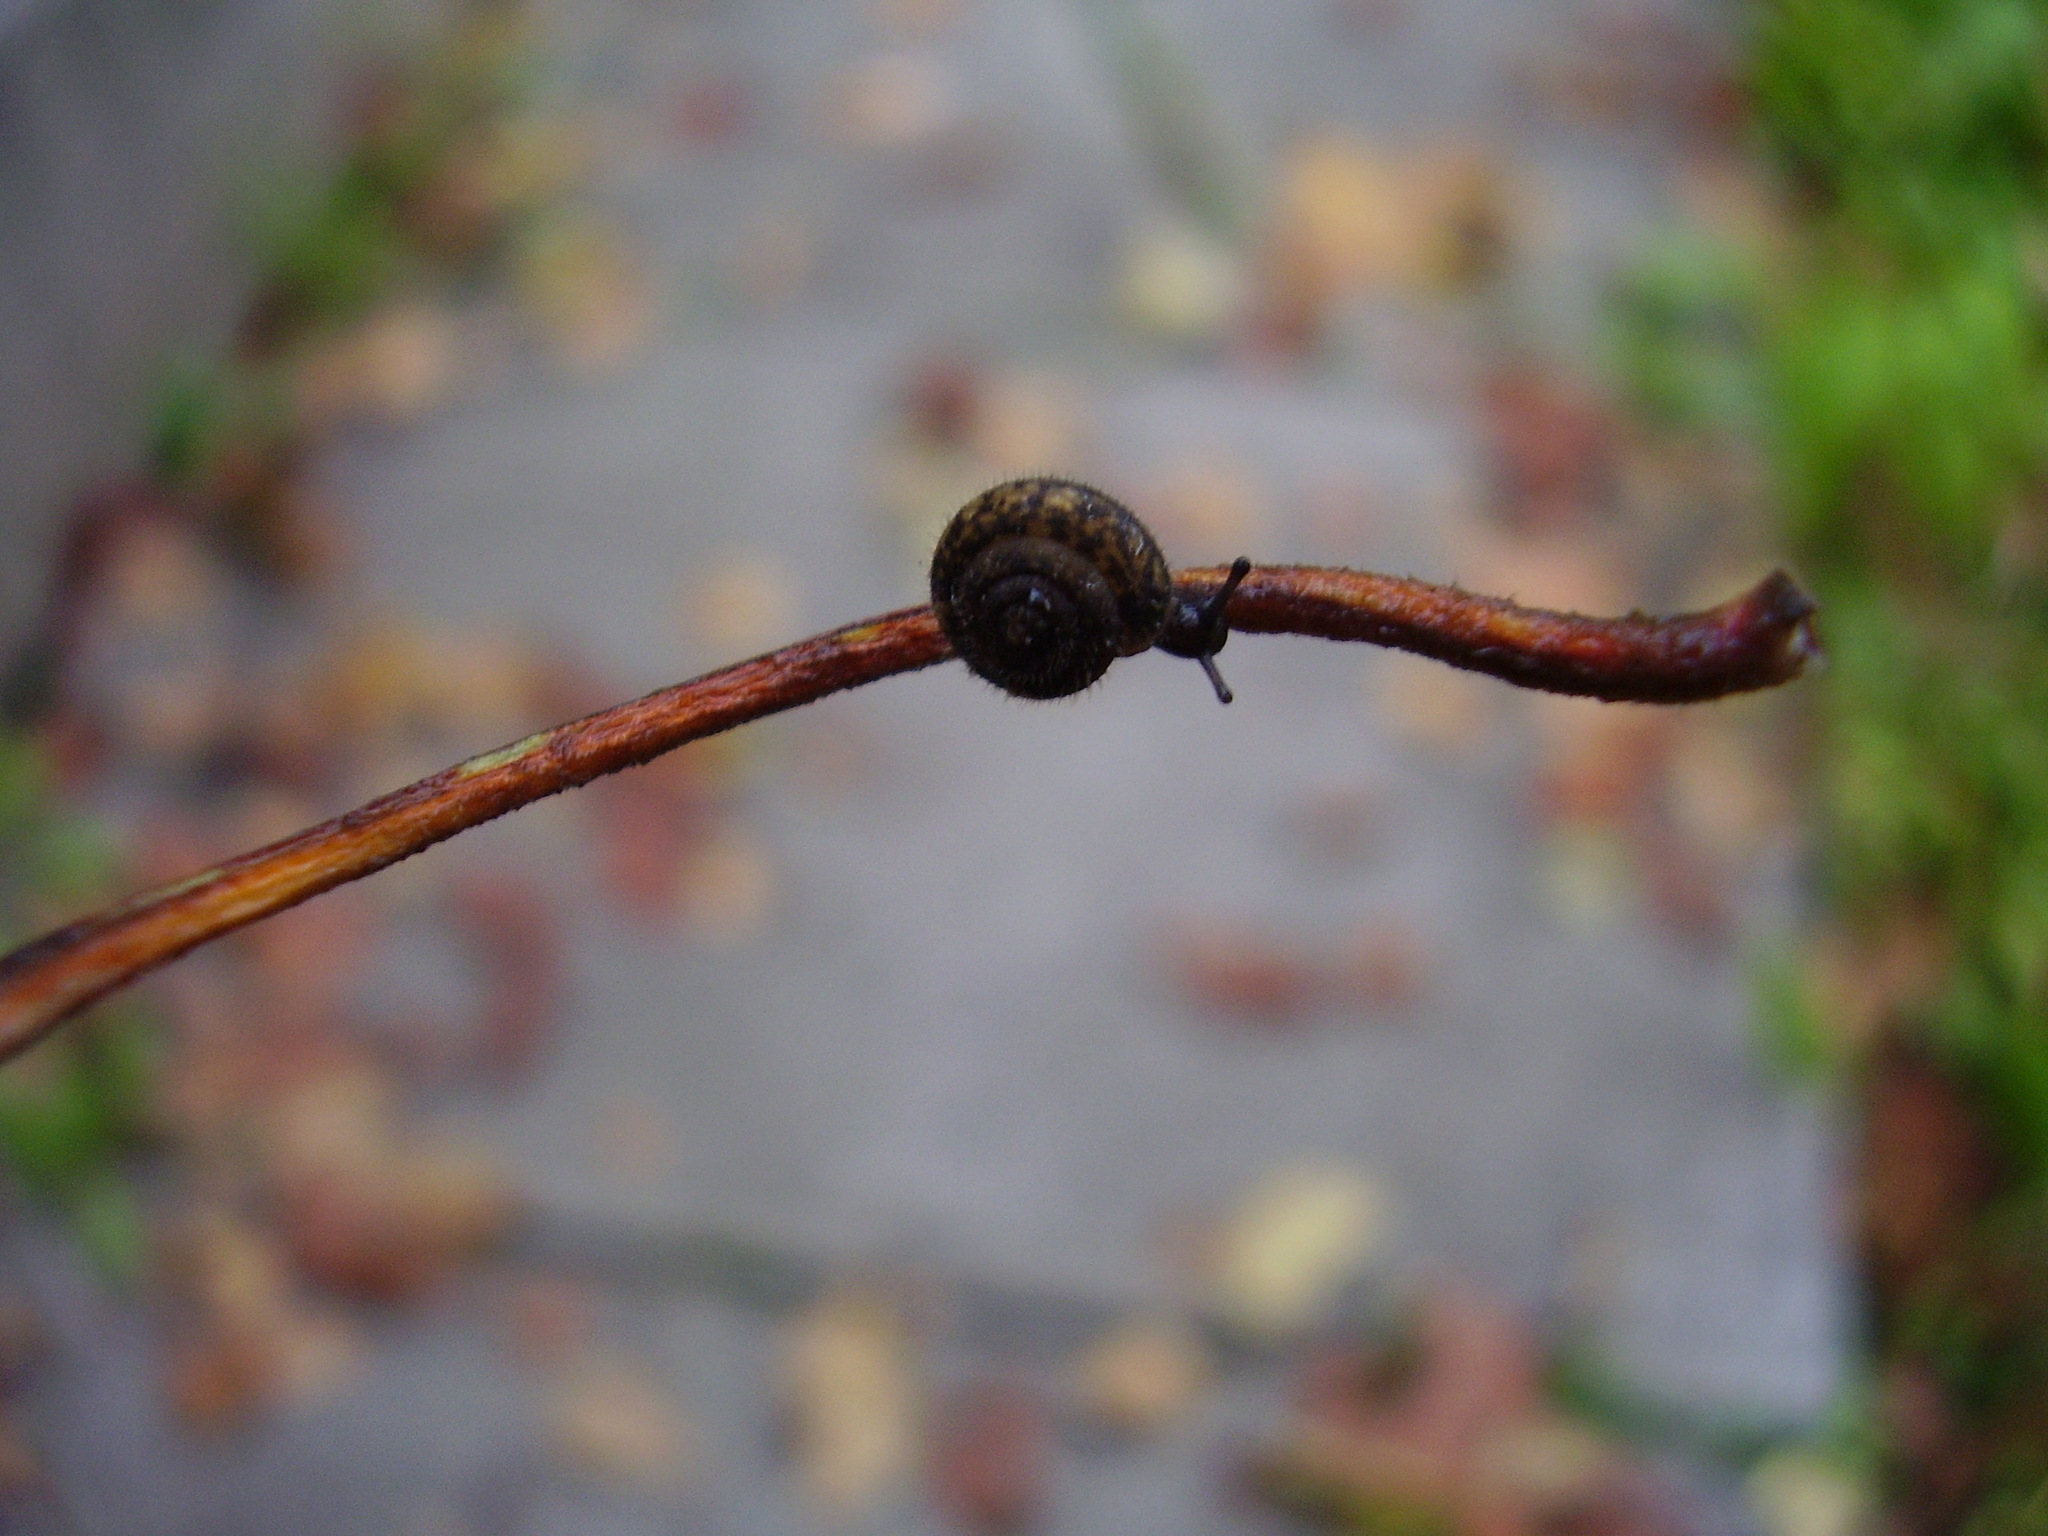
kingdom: Animalia
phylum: Mollusca
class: Gastropoda
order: Stylommatophora
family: Hygromiidae
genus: Trochulus
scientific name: Trochulus hispidus
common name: Hairy snail
